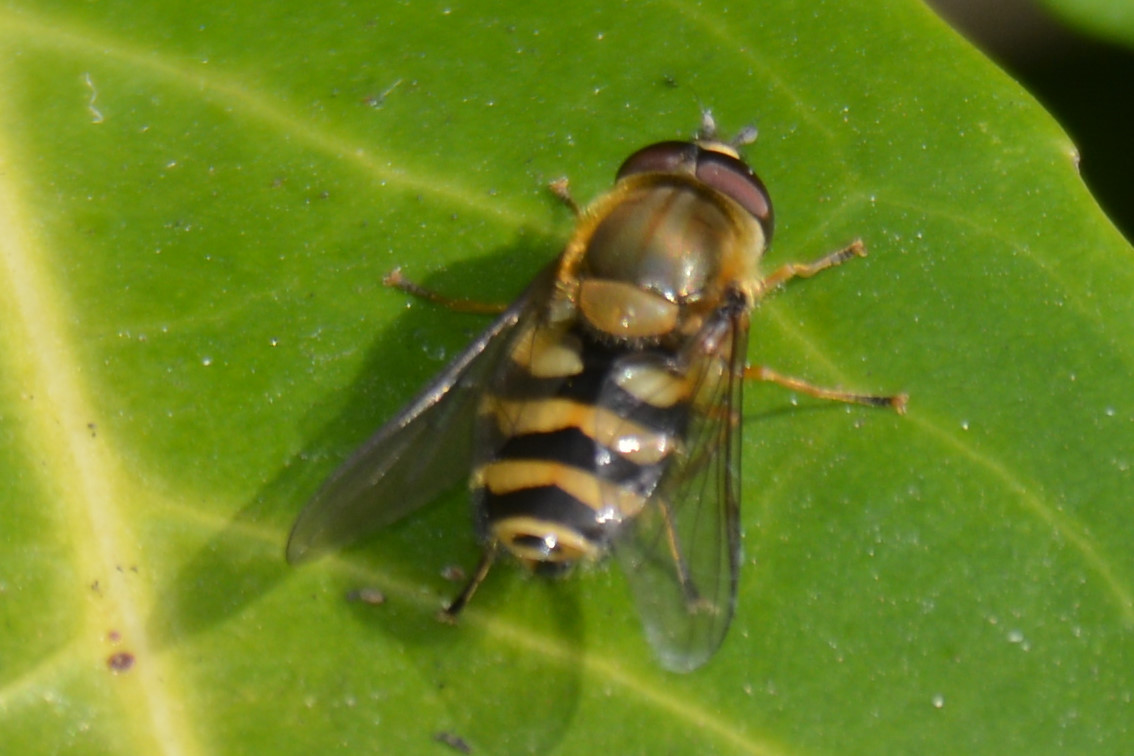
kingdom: Animalia
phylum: Arthropoda
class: Insecta
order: Diptera
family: Syrphidae
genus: Syrphus
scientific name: Syrphus
